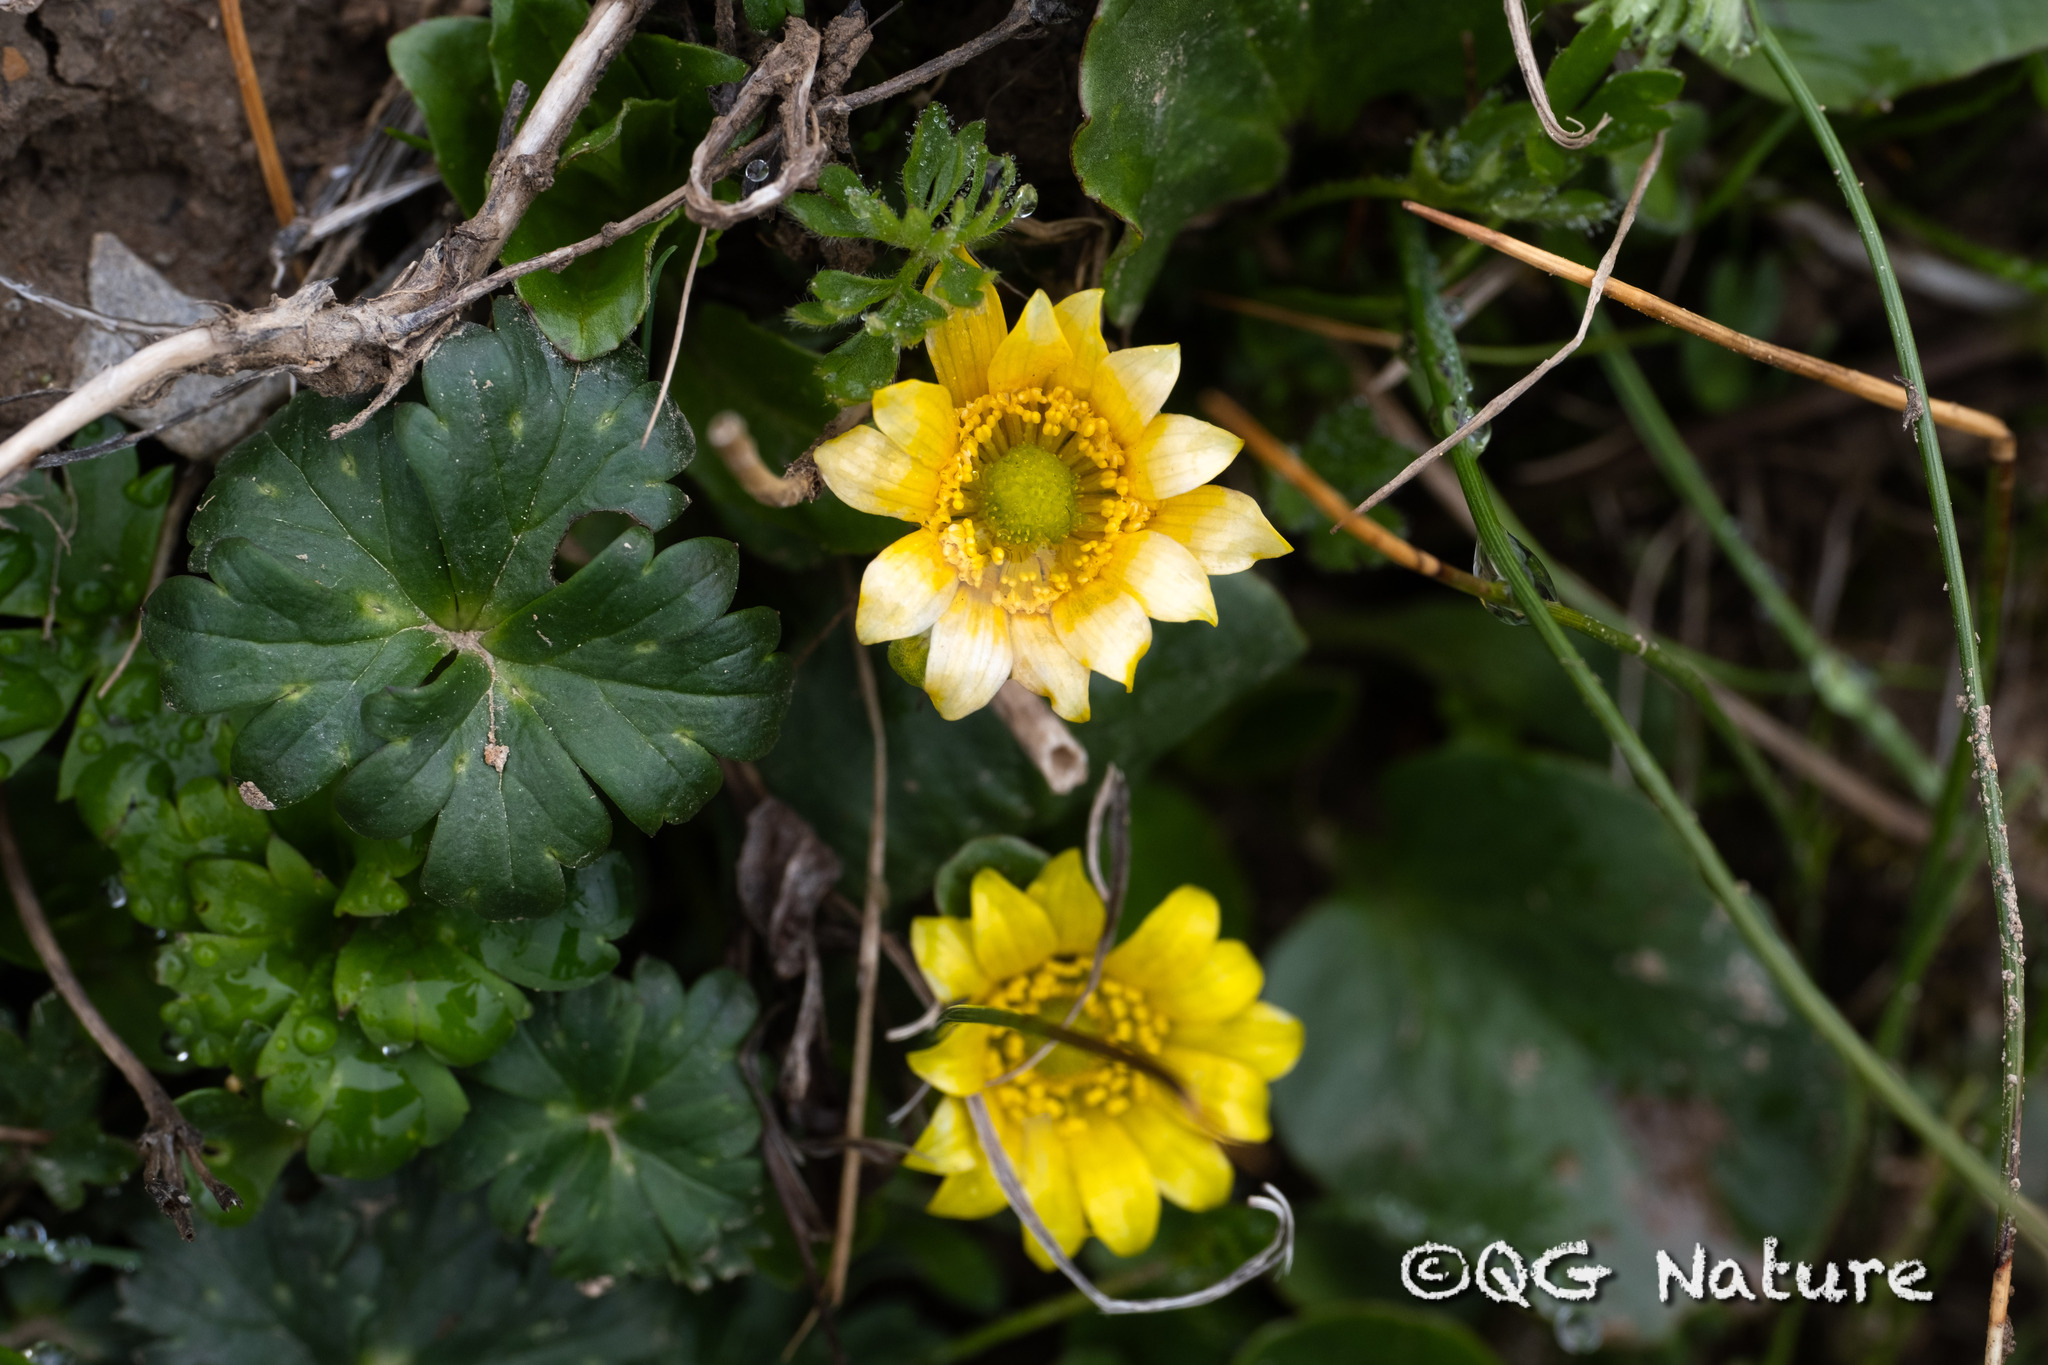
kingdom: Plantae
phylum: Tracheophyta
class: Magnoliopsida
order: Ranunculales
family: Ranunculaceae
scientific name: Ranunculaceae
